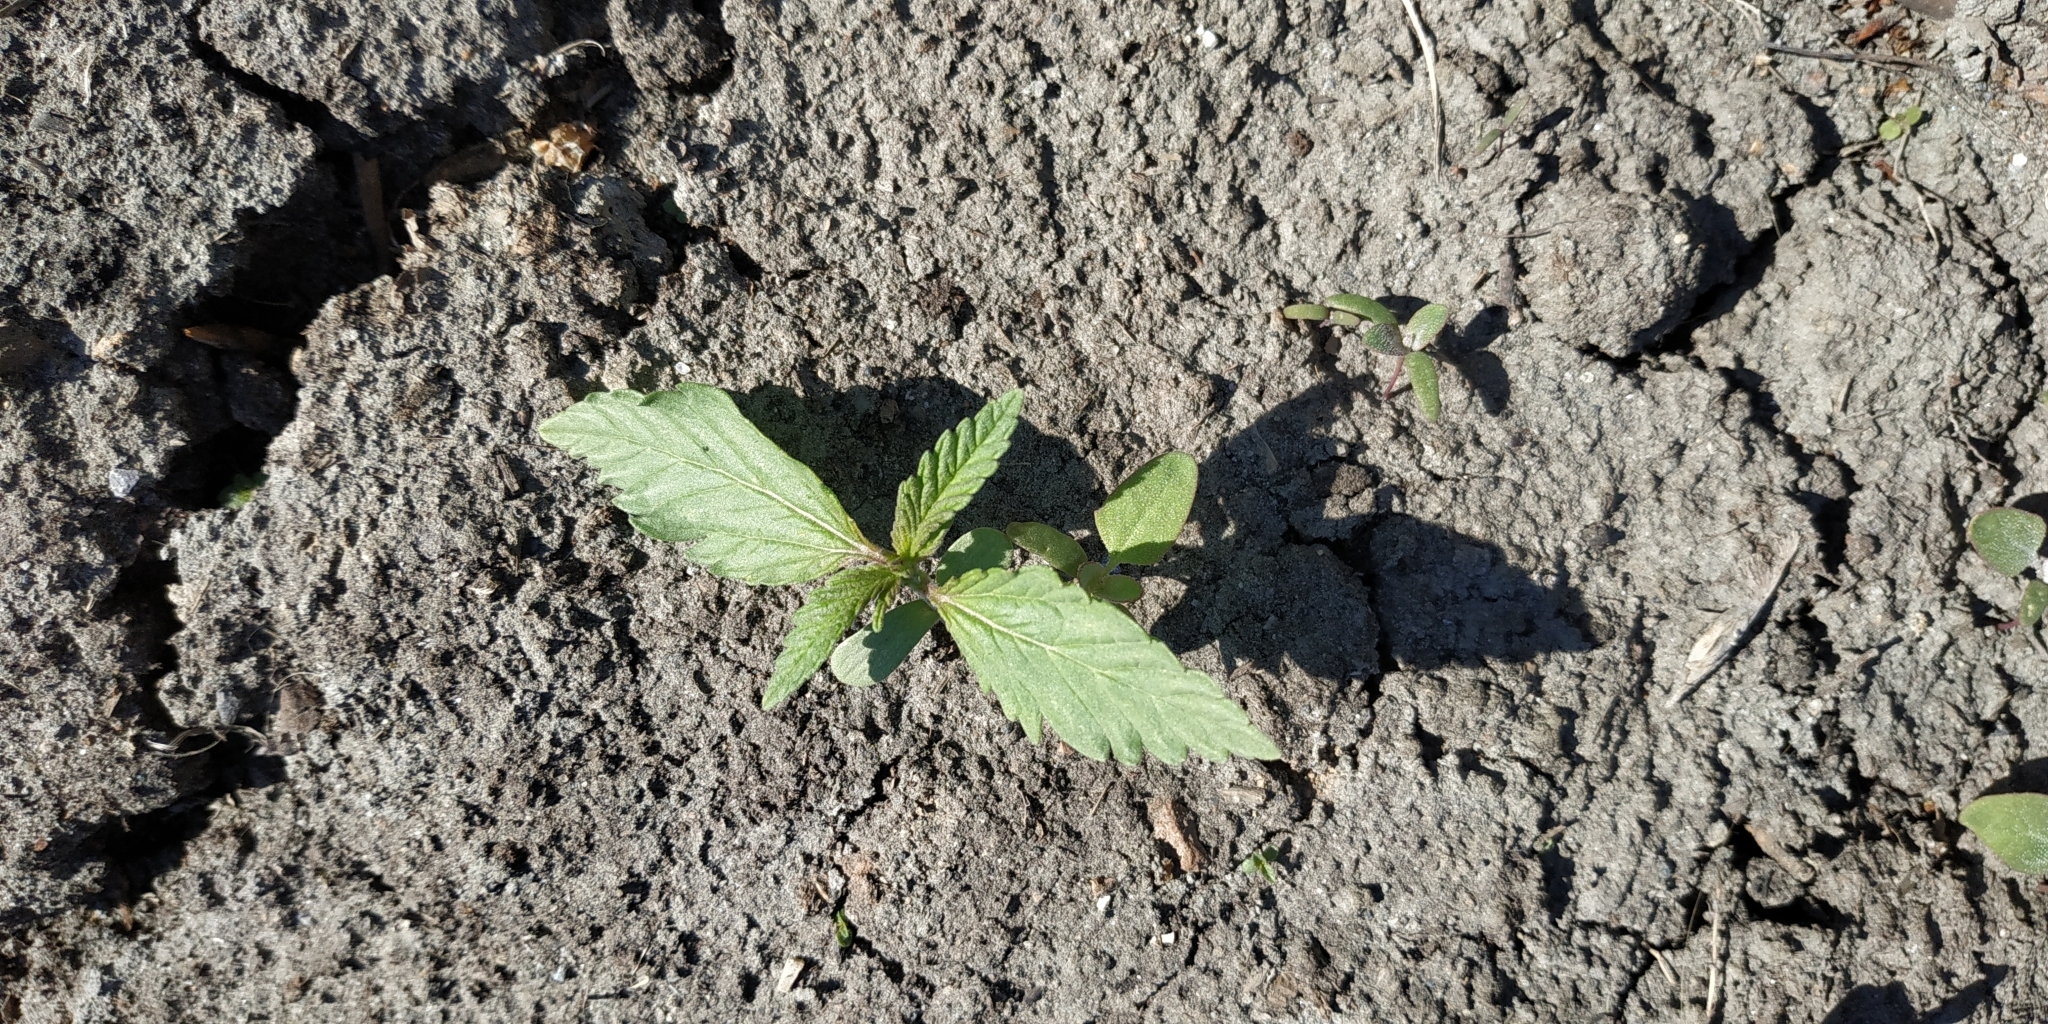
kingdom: Plantae
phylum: Tracheophyta
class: Magnoliopsida
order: Lamiales
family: Lamiaceae
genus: Galeopsis
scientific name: Galeopsis
